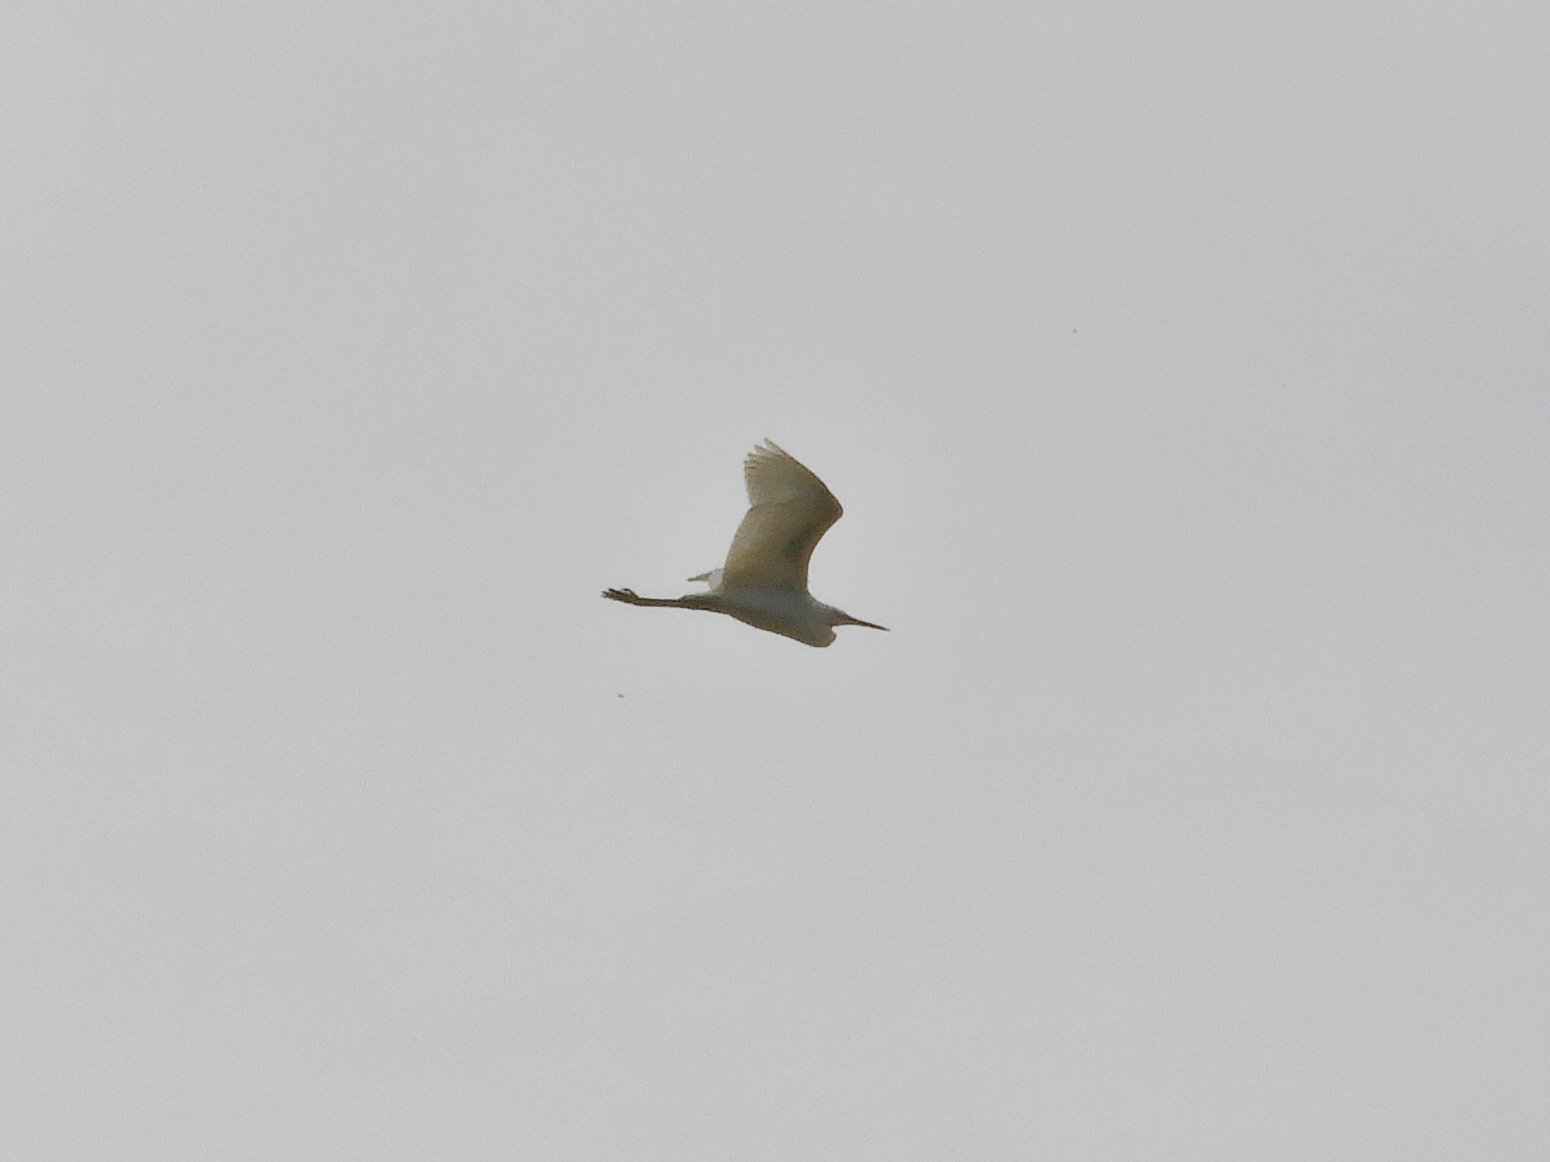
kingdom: Animalia
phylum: Chordata
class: Aves
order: Pelecaniformes
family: Ardeidae
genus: Egretta
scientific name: Egretta garzetta
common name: Little egret
